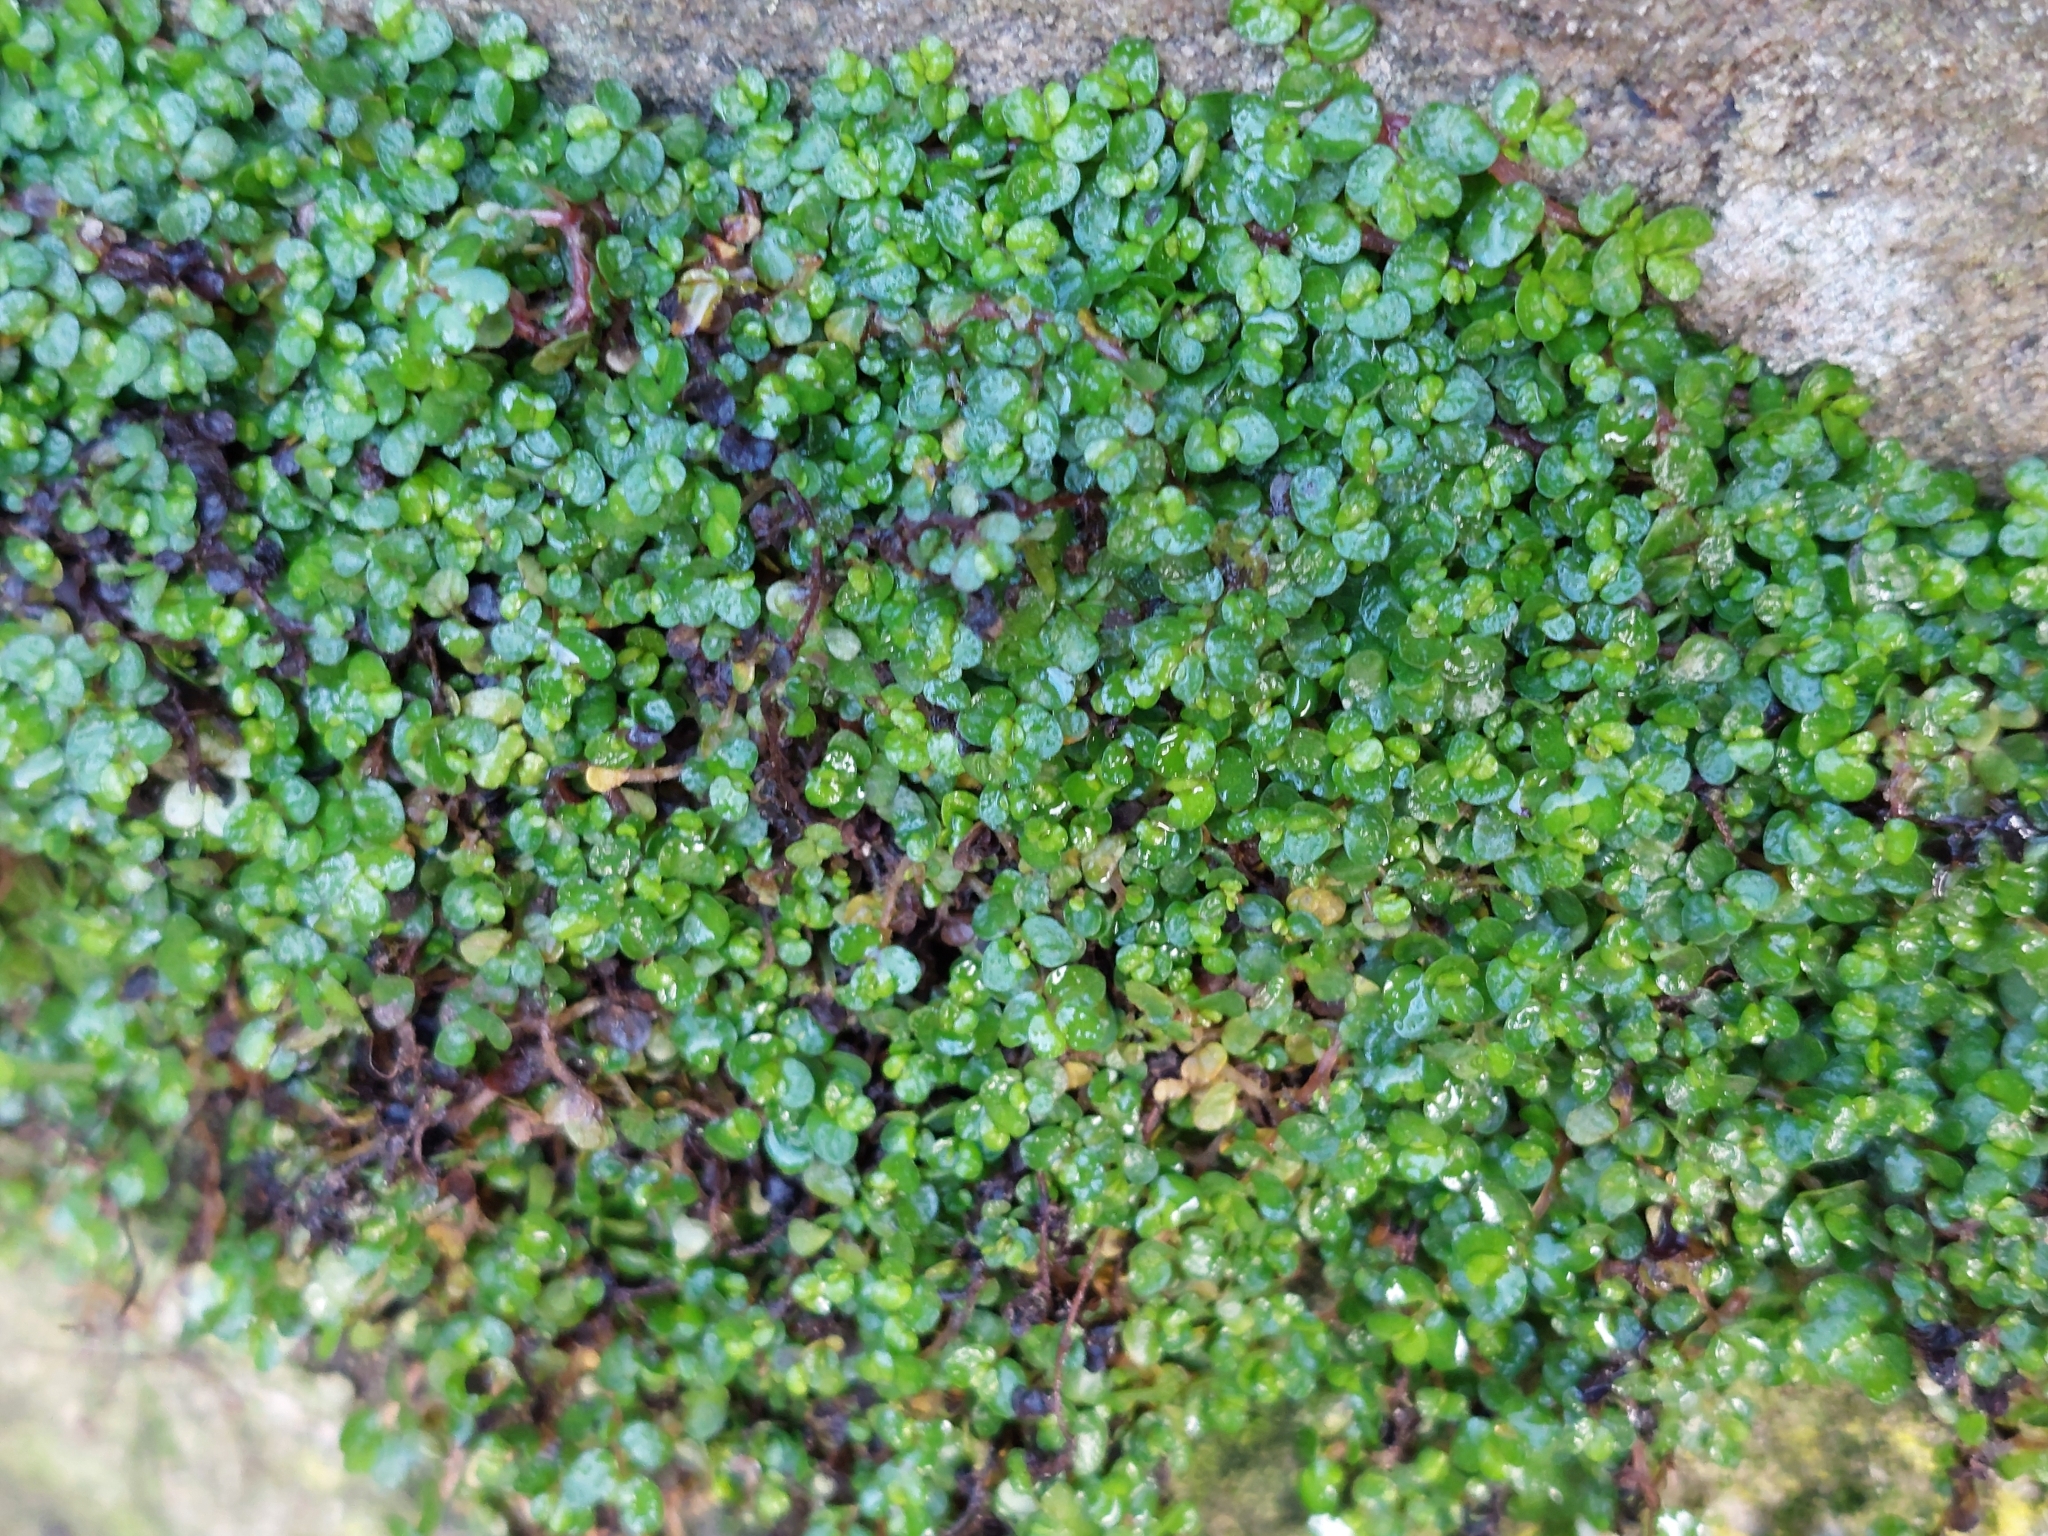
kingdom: Plantae
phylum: Tracheophyta
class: Magnoliopsida
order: Rosales
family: Urticaceae
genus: Soleirolia
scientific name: Soleirolia soleirolii
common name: Mind-your-own-business
